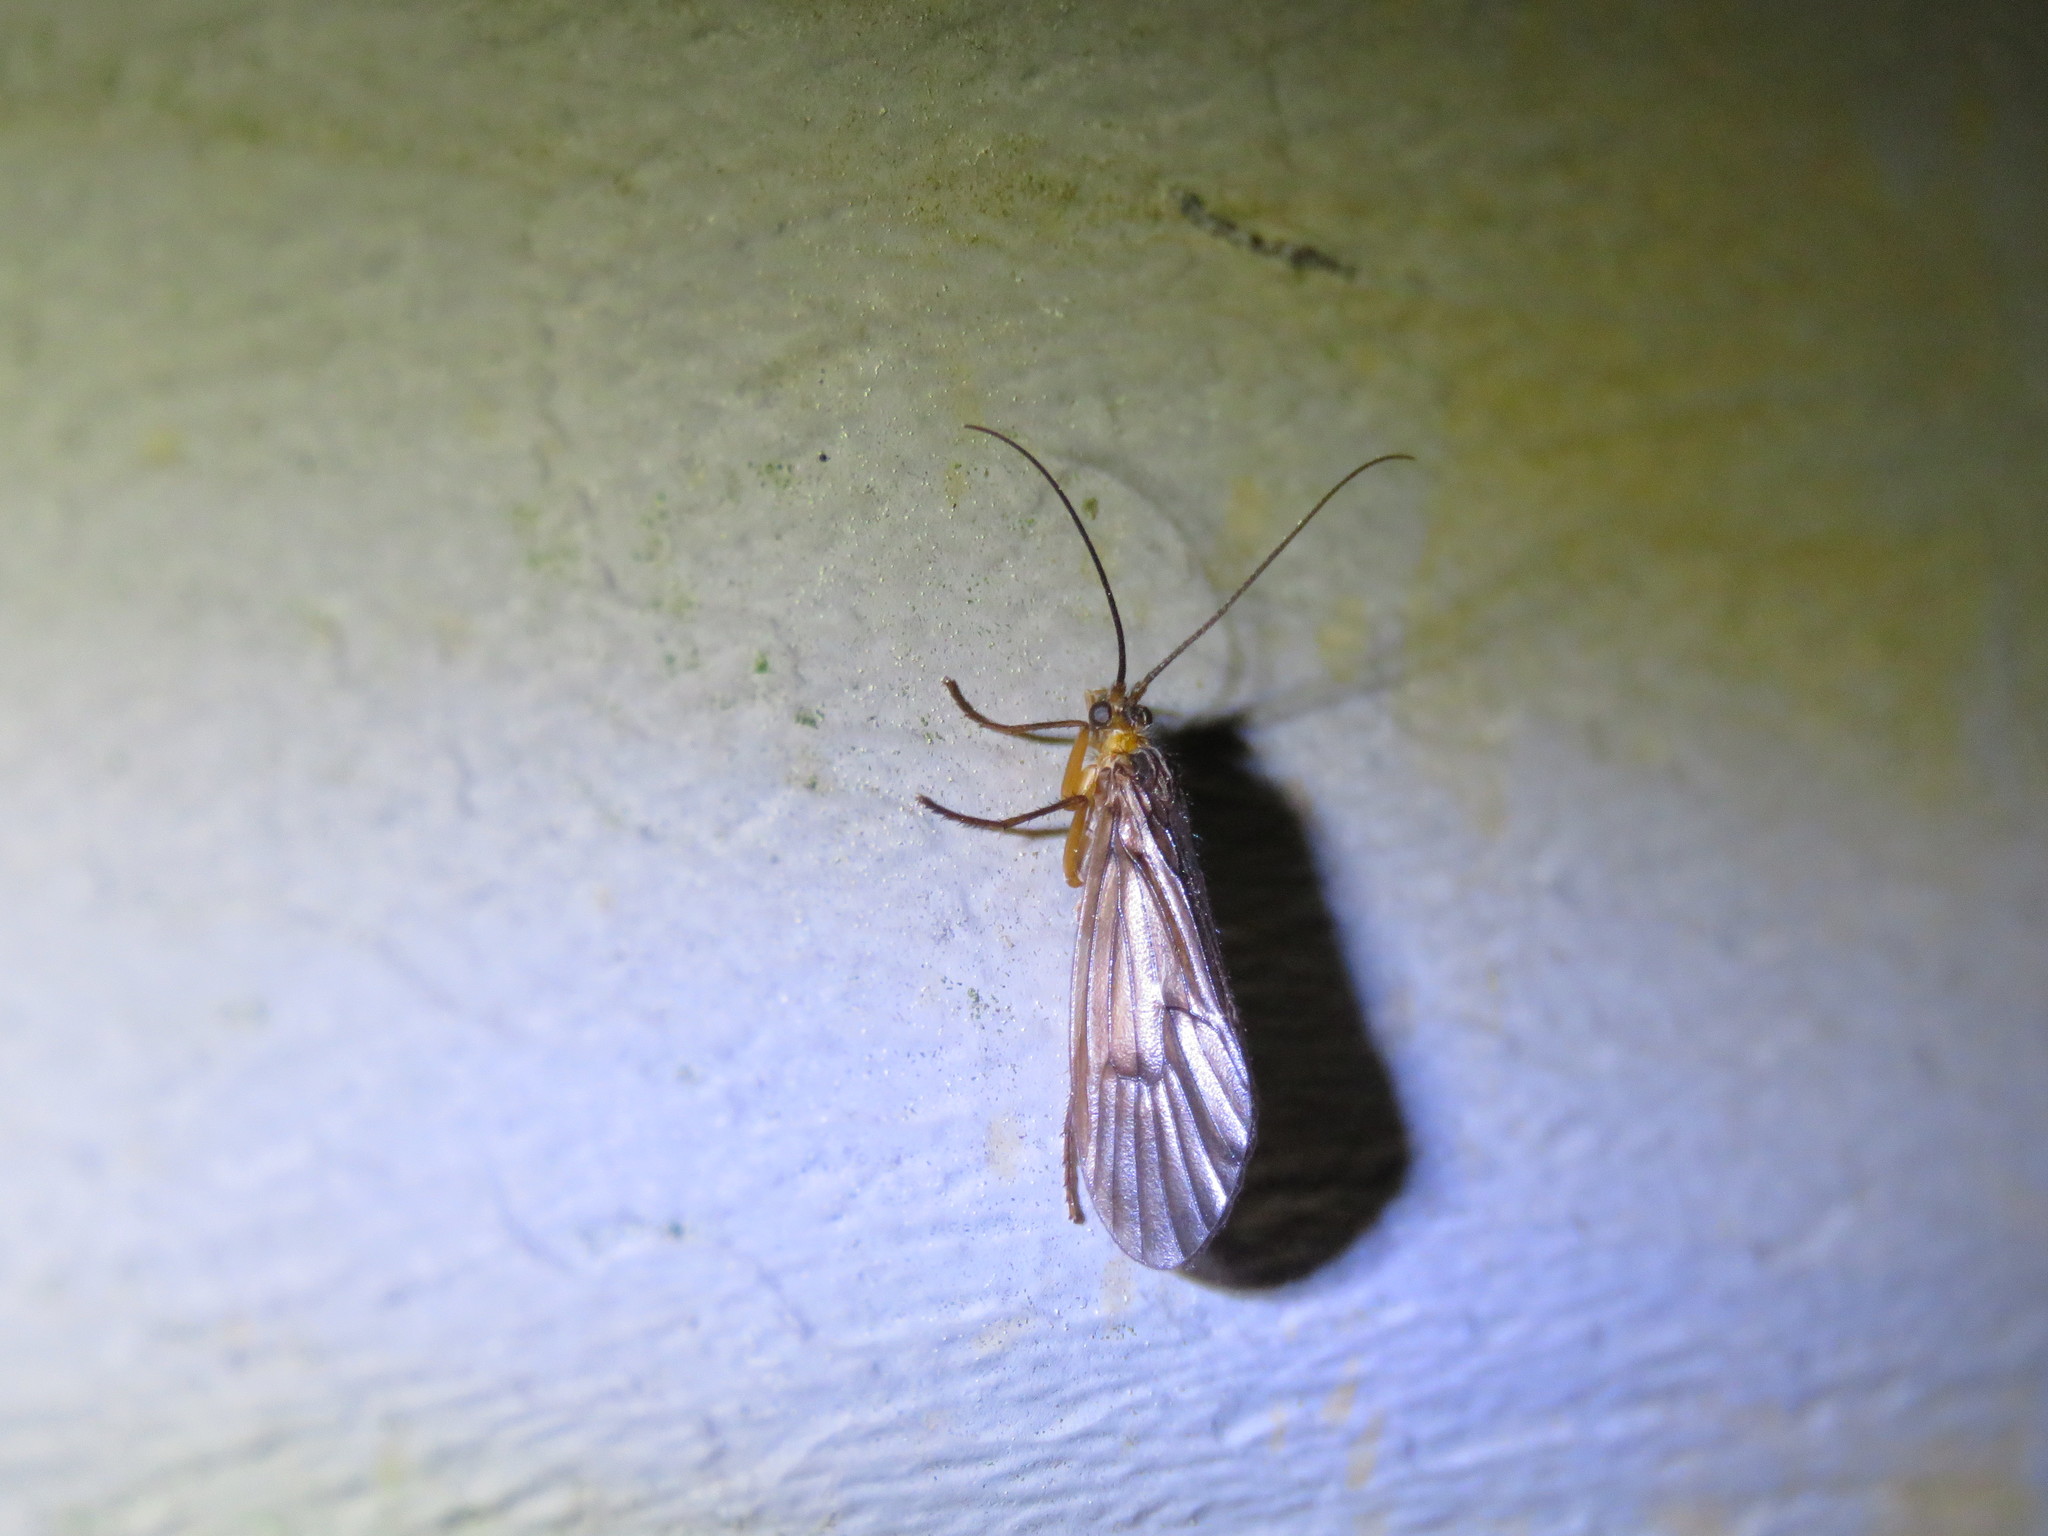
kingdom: Animalia
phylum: Arthropoda
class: Insecta
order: Trichoptera
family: Limnephilidae
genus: Pseudostenophylax
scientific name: Pseudostenophylax sparsus
